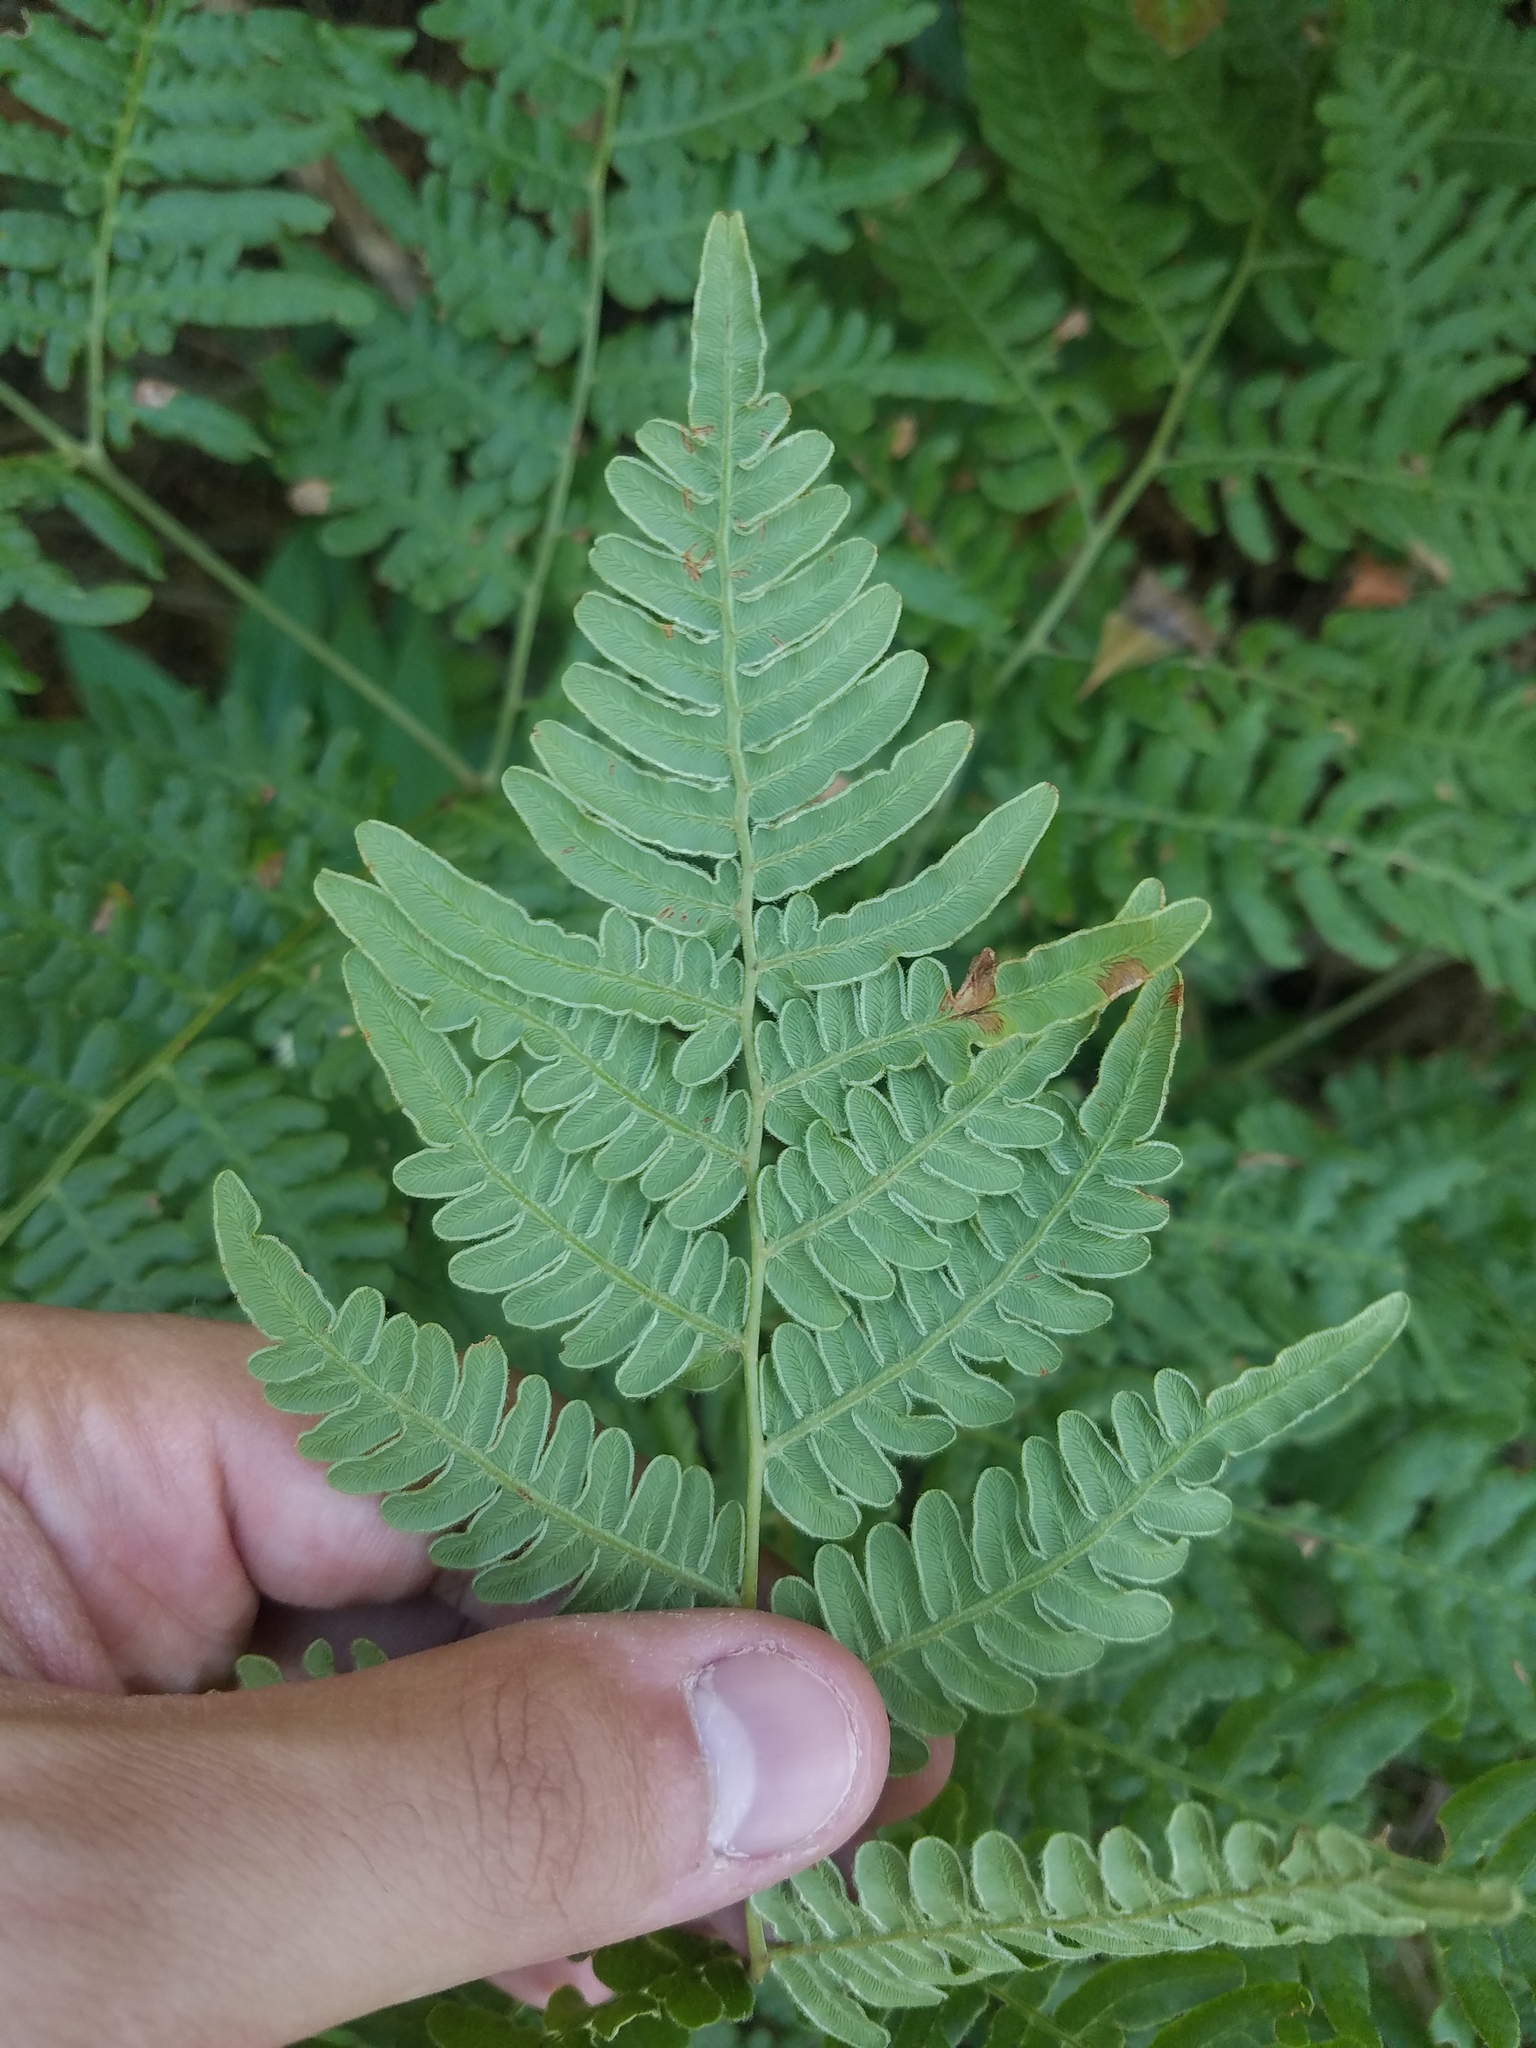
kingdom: Plantae
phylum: Tracheophyta
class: Polypodiopsida
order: Polypodiales
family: Dennstaedtiaceae
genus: Pteridium
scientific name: Pteridium aquilinum
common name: Bracken
